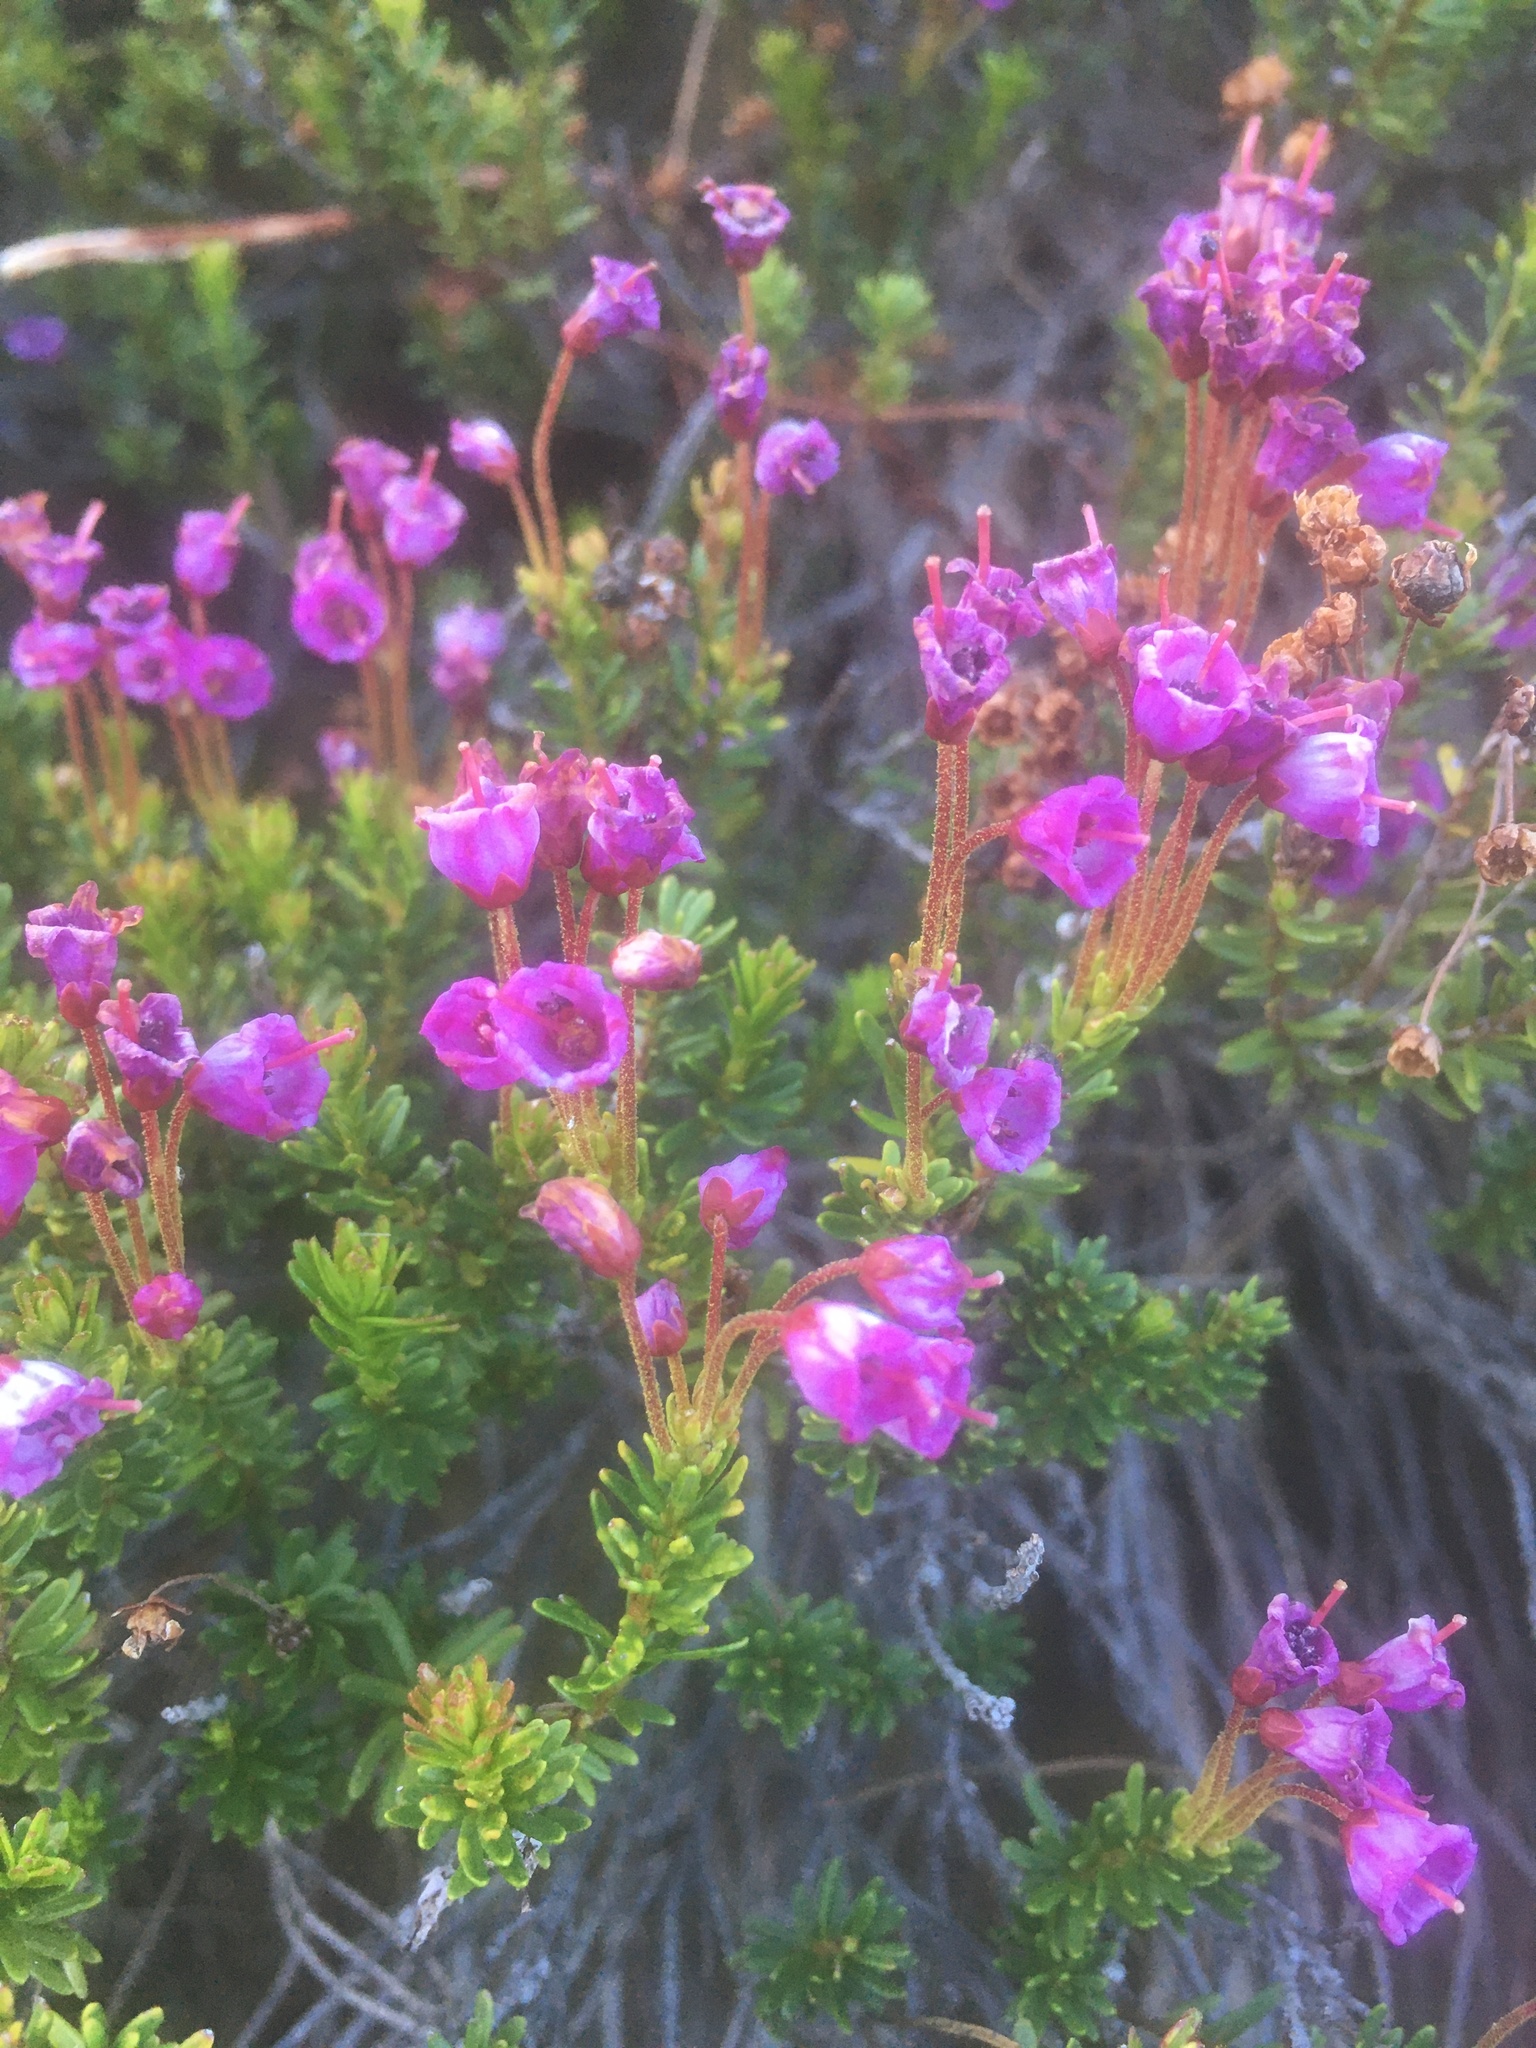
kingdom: Plantae
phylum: Tracheophyta
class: Magnoliopsida
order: Ericales
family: Ericaceae
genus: Phyllodoce
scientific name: Phyllodoce empetriformis
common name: Pink mountain heather
